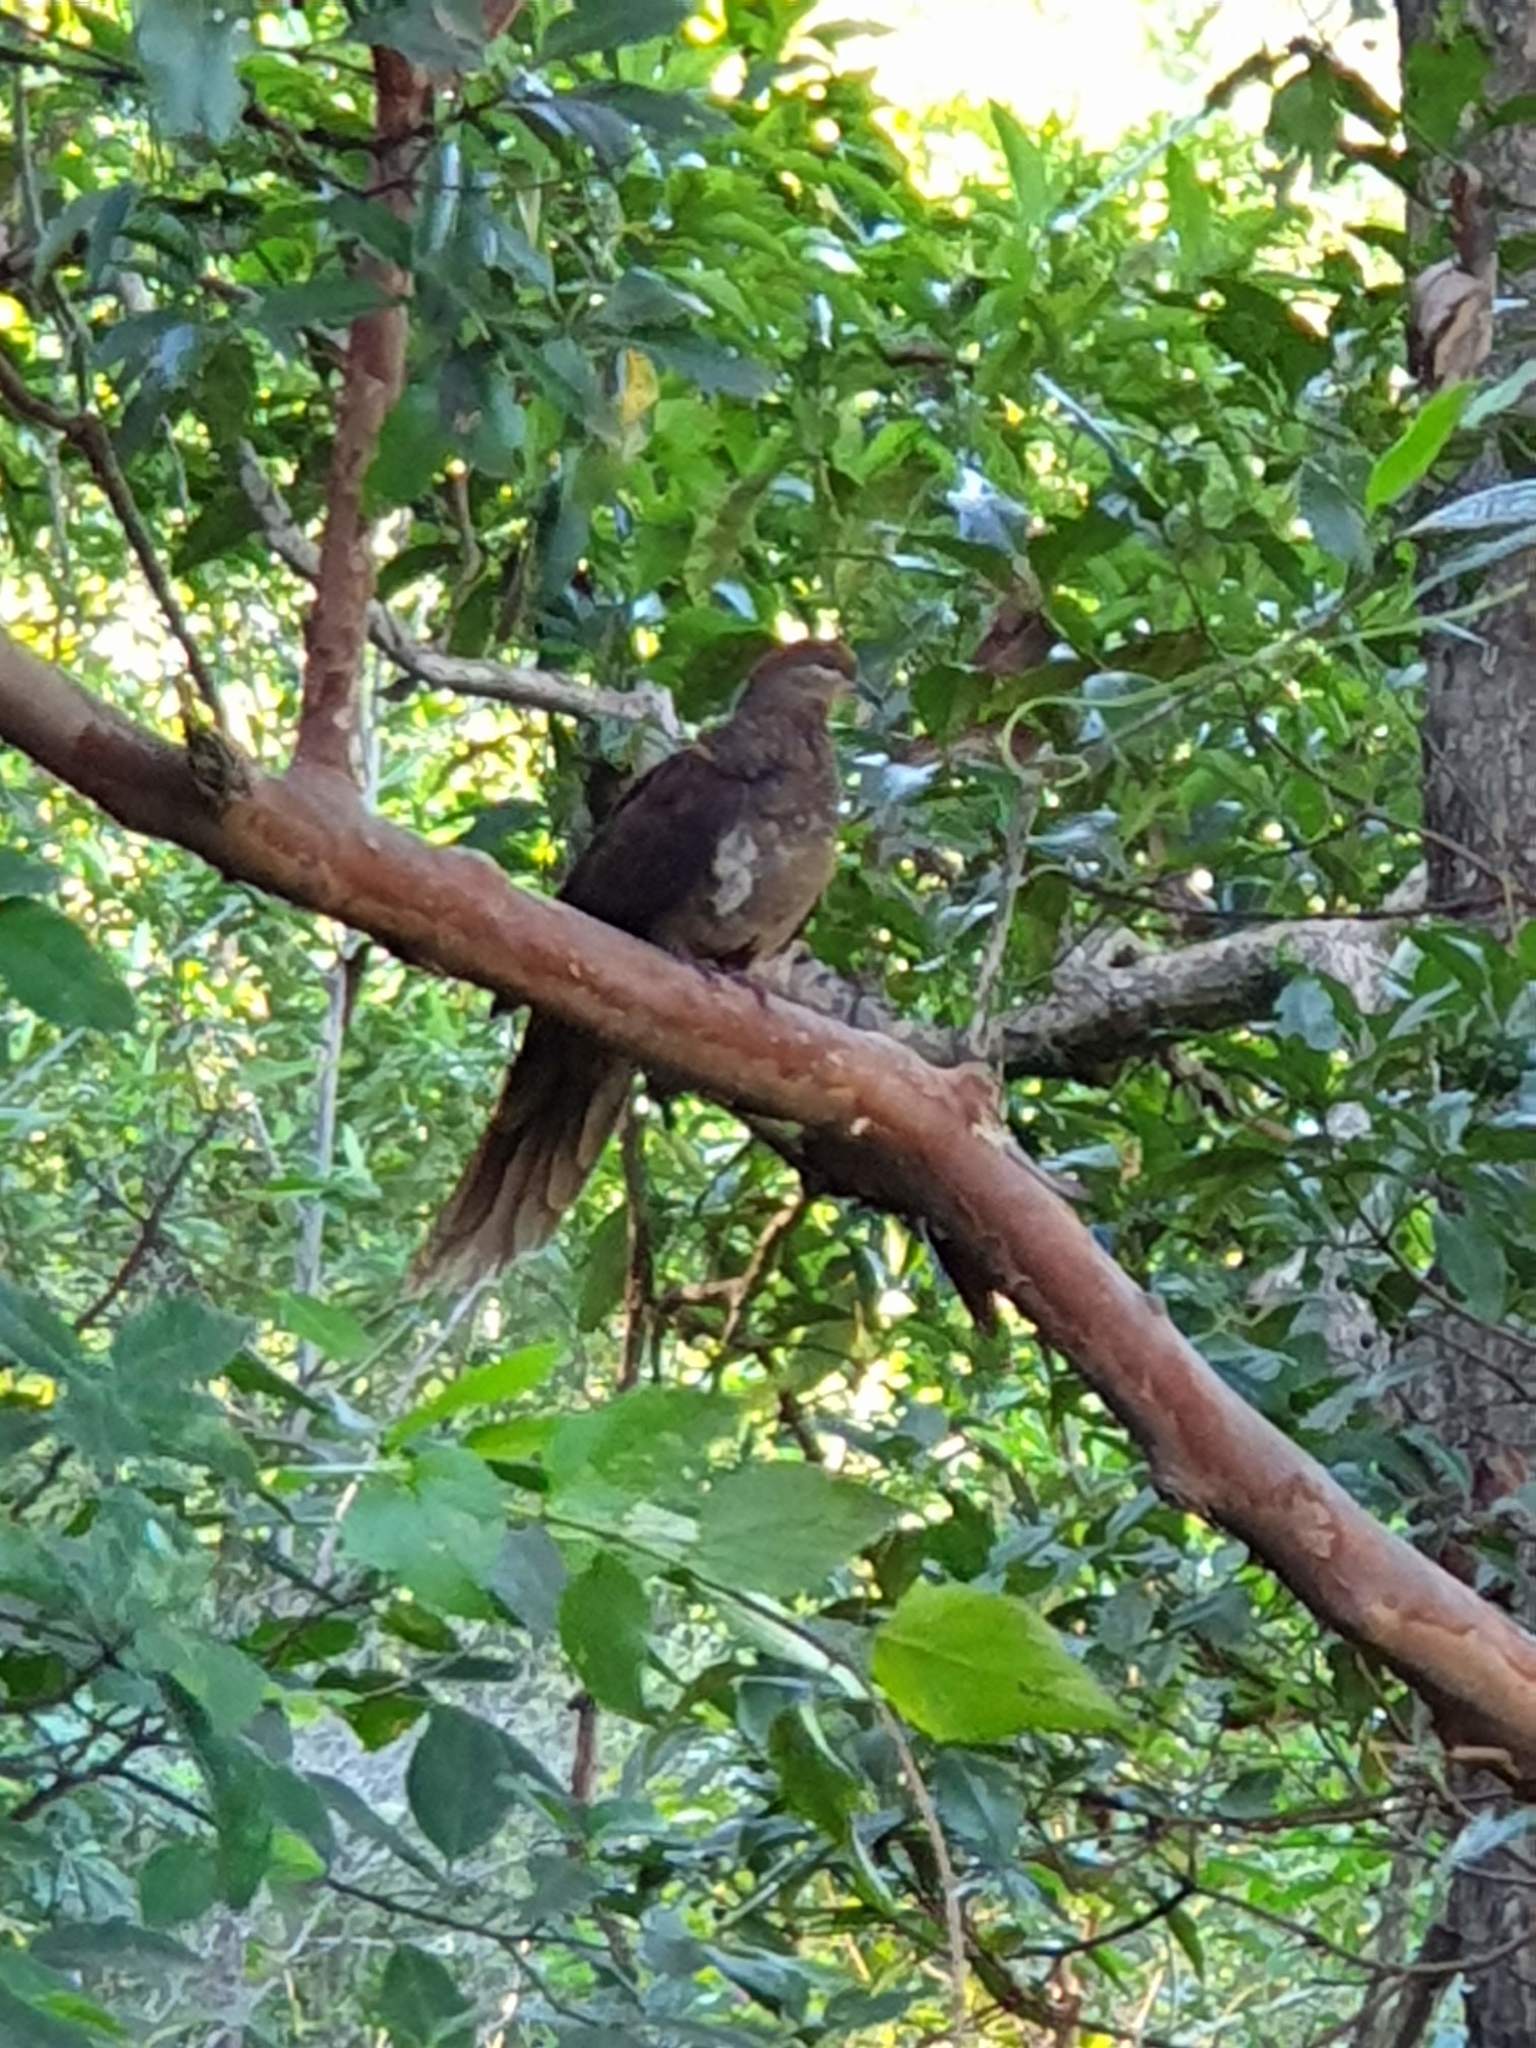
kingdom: Animalia
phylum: Chordata
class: Aves
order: Columbiformes
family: Columbidae
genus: Macropygia
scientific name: Macropygia phasianella
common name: Brown cuckoo-dove
